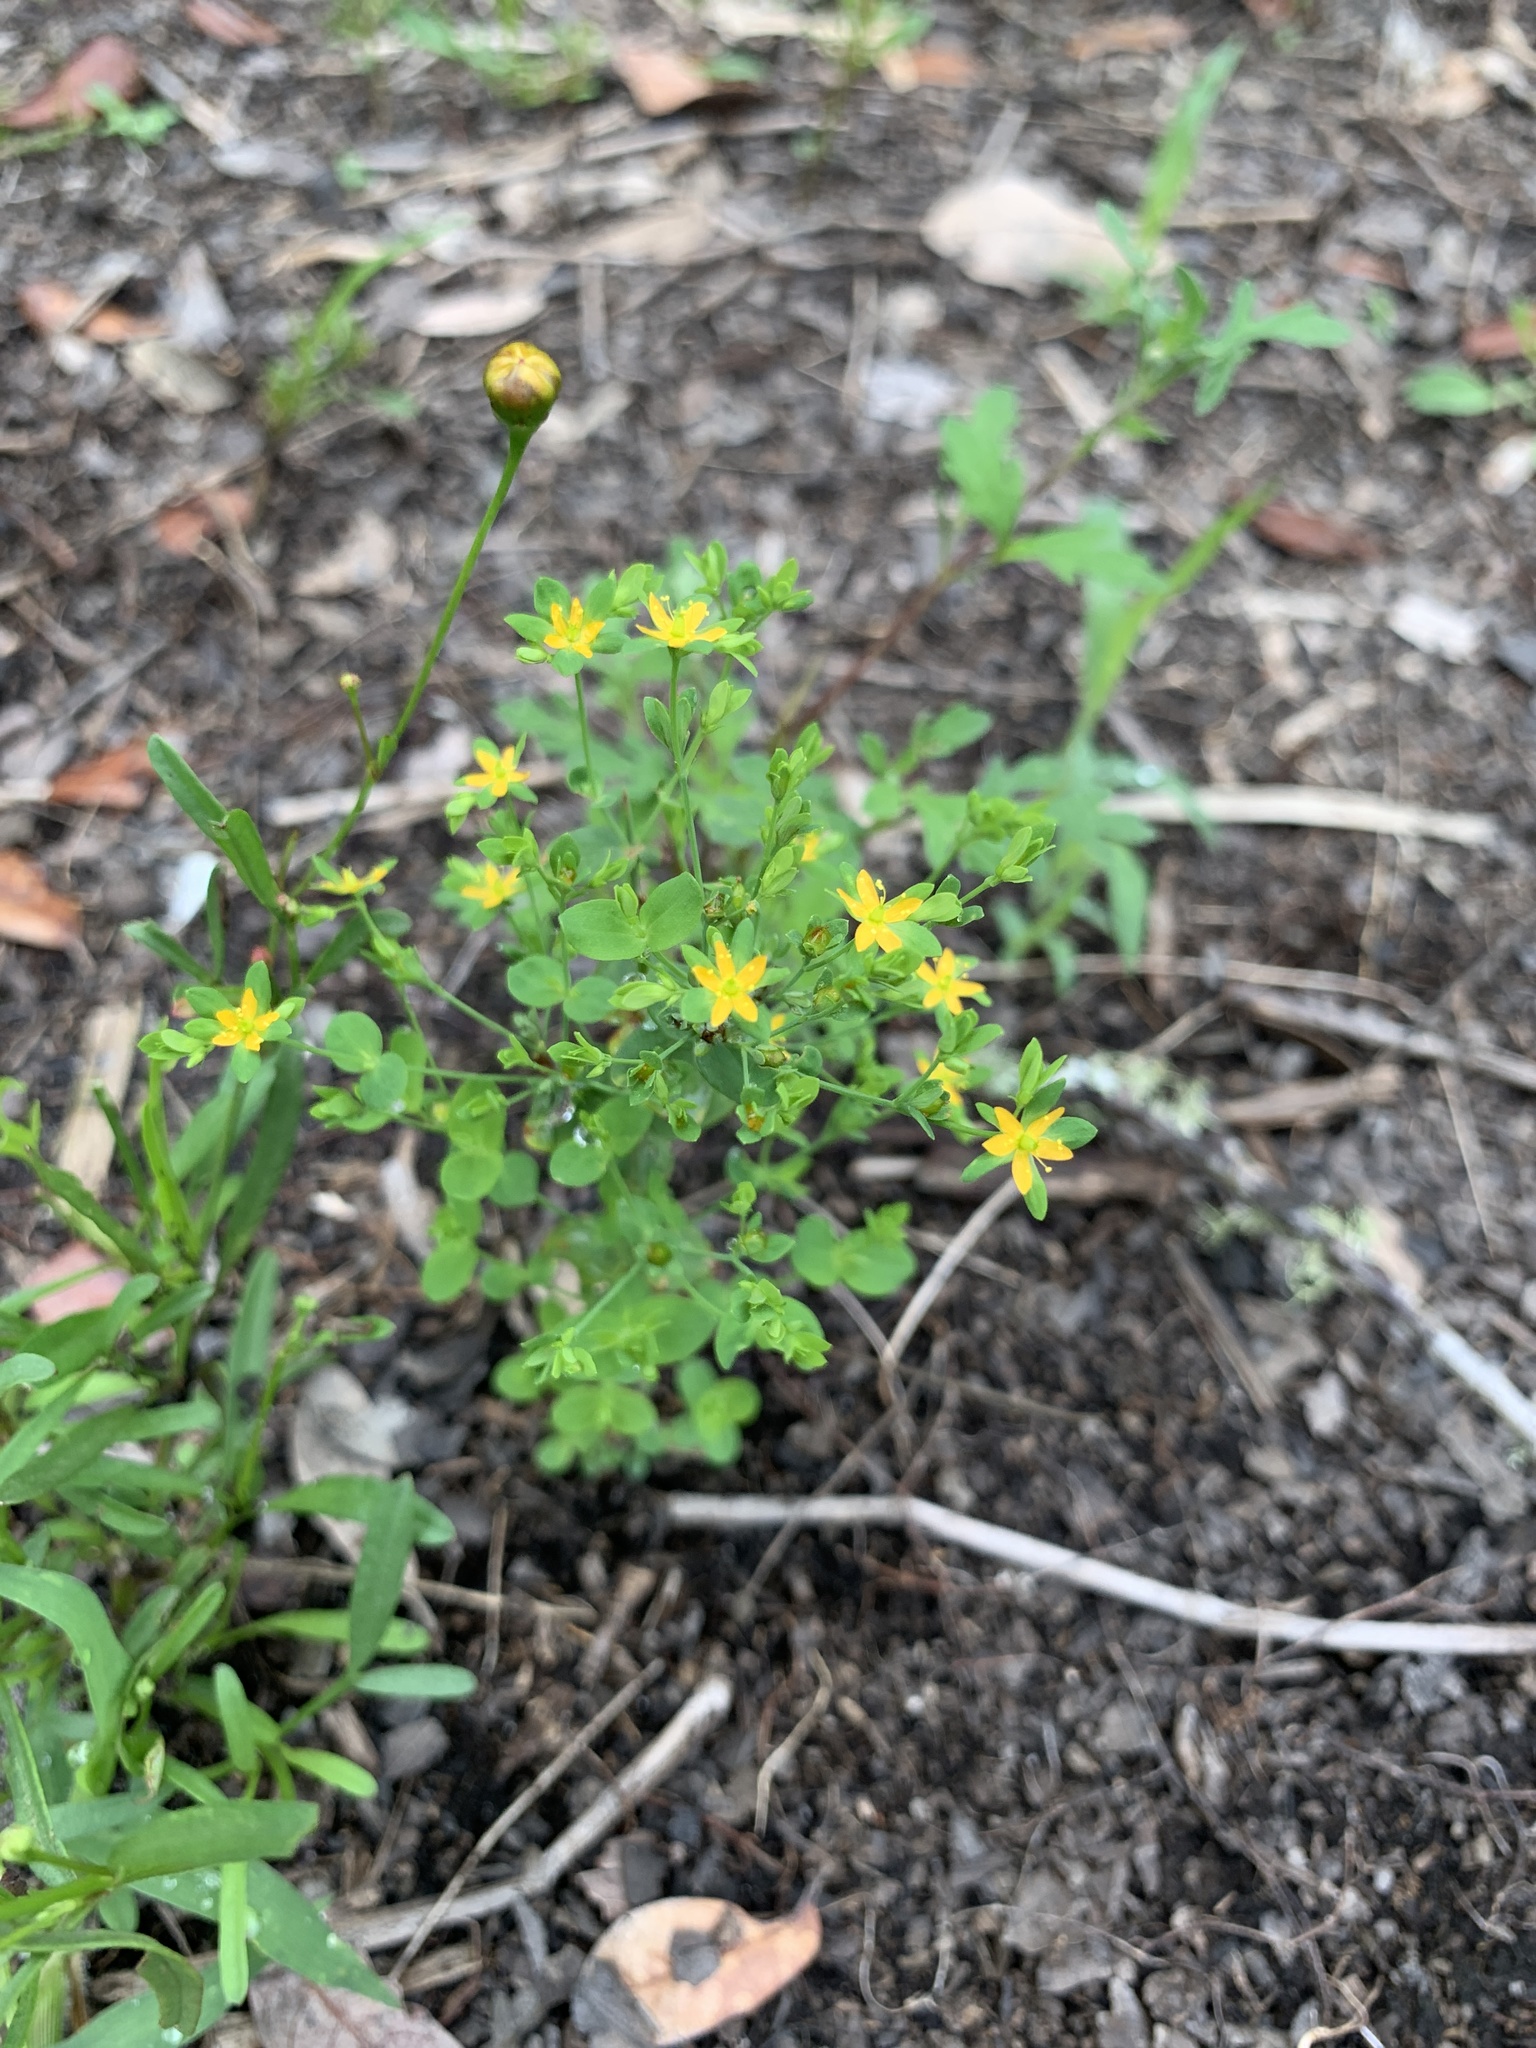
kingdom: Plantae
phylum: Tracheophyta
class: Magnoliopsida
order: Malpighiales
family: Hypericaceae
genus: Hypericum
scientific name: Hypericum mutilum
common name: Dwarf st. john's-wort
